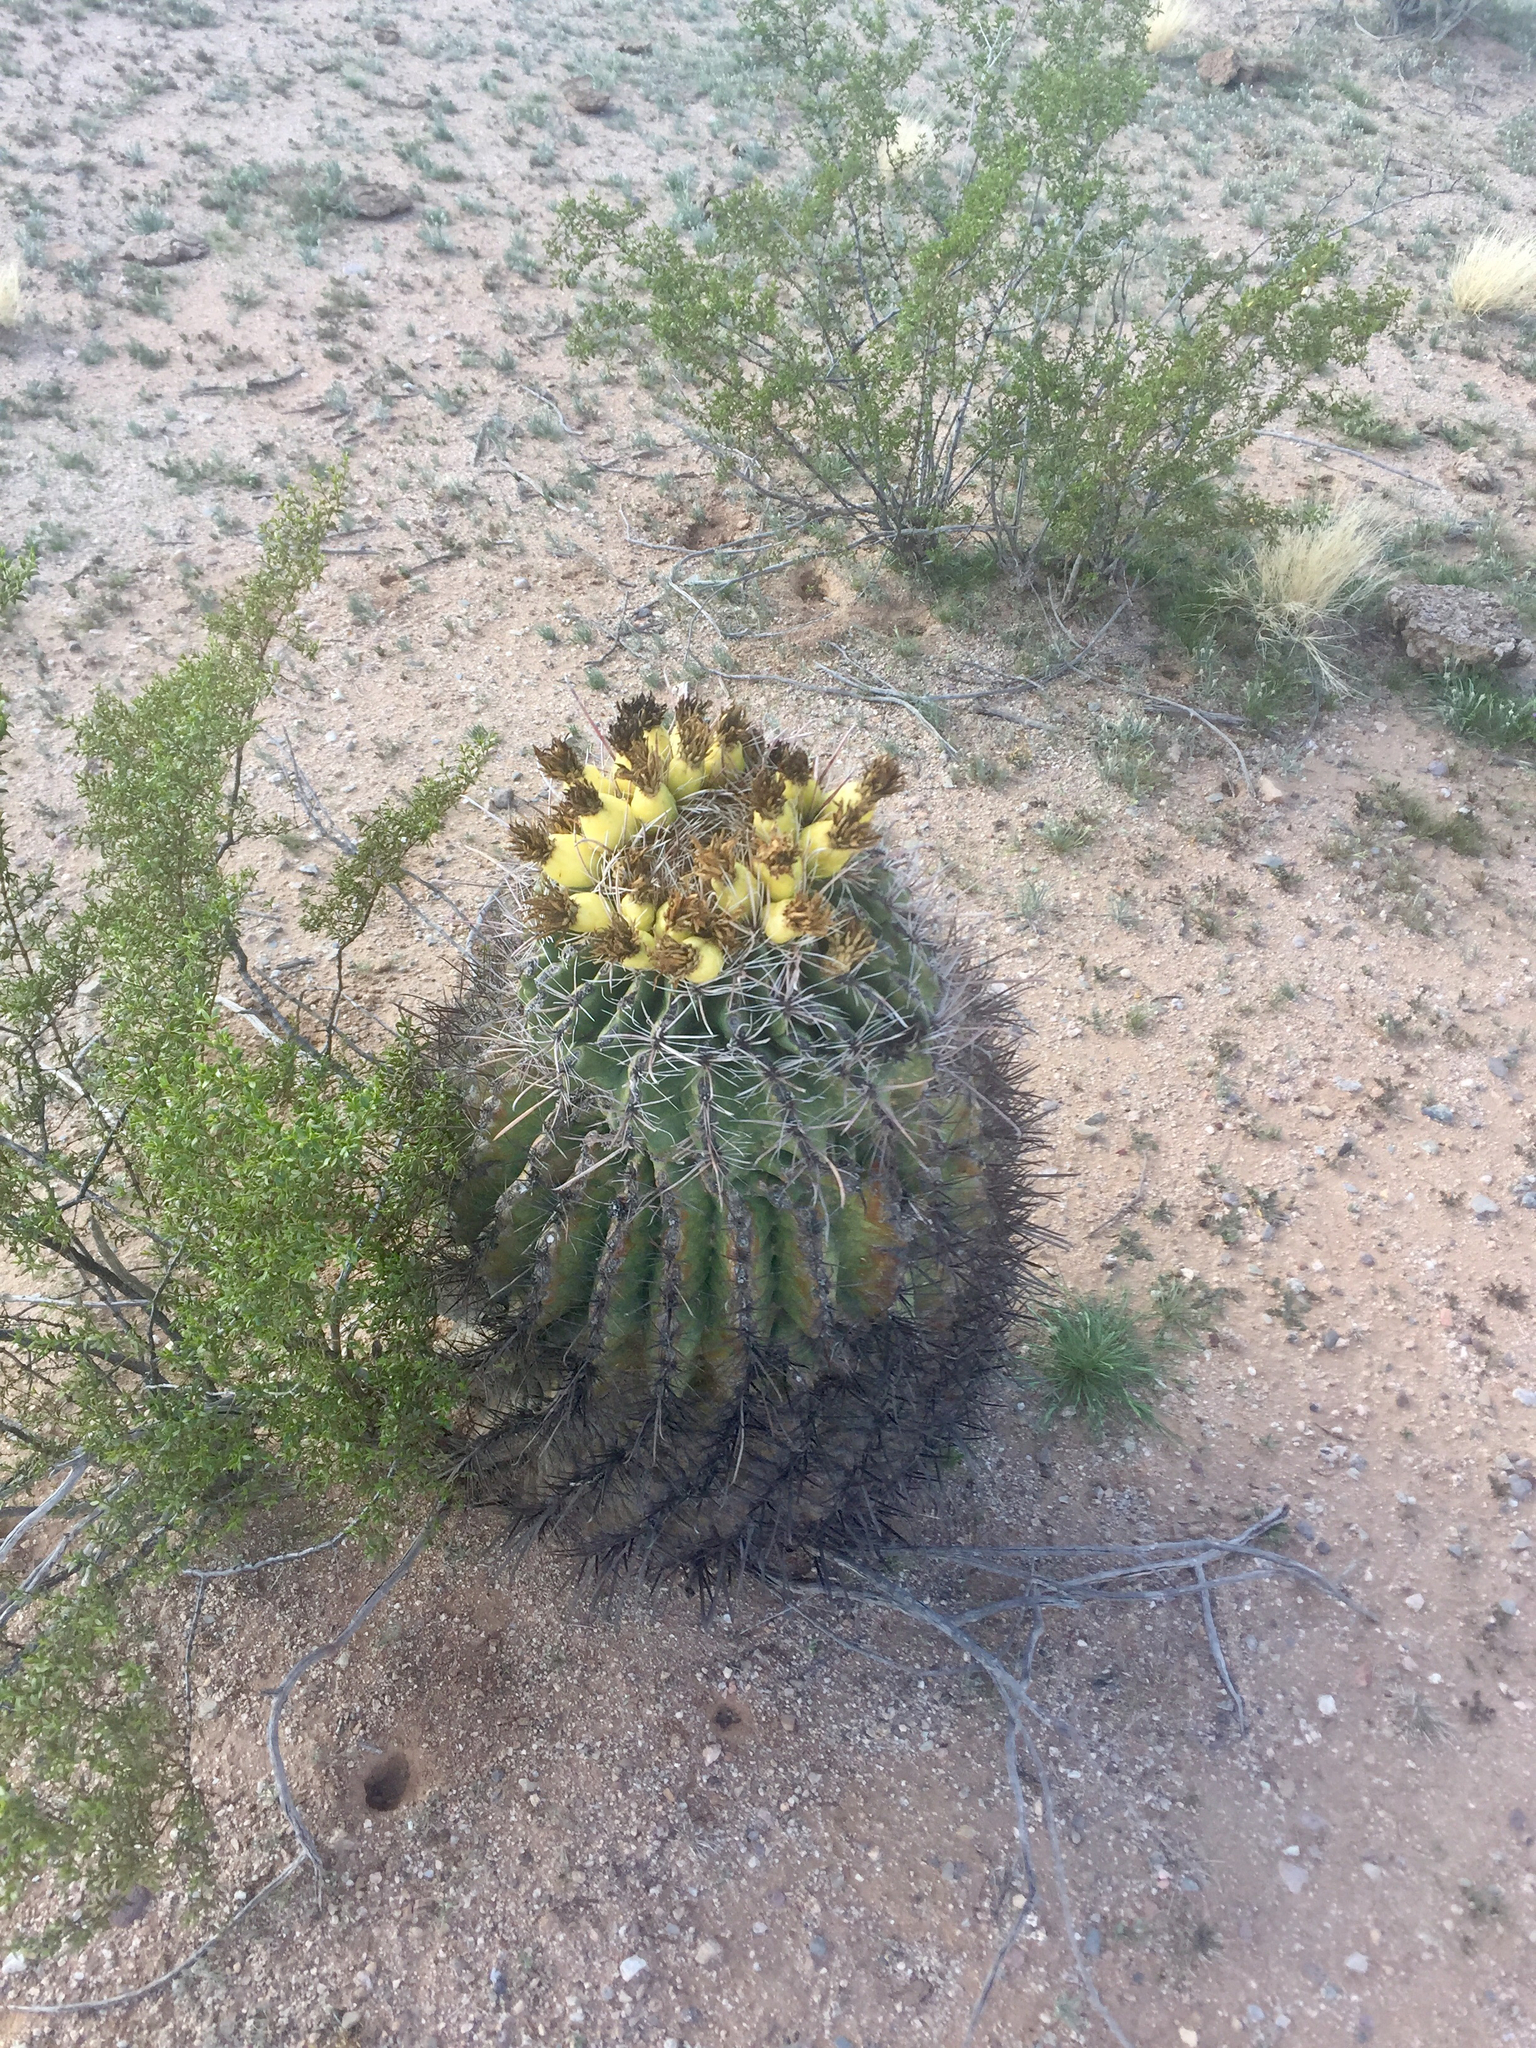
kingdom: Plantae
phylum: Tracheophyta
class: Magnoliopsida
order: Caryophyllales
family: Cactaceae
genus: Ferocactus
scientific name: Ferocactus wislizeni
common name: Candy barrel cactus
